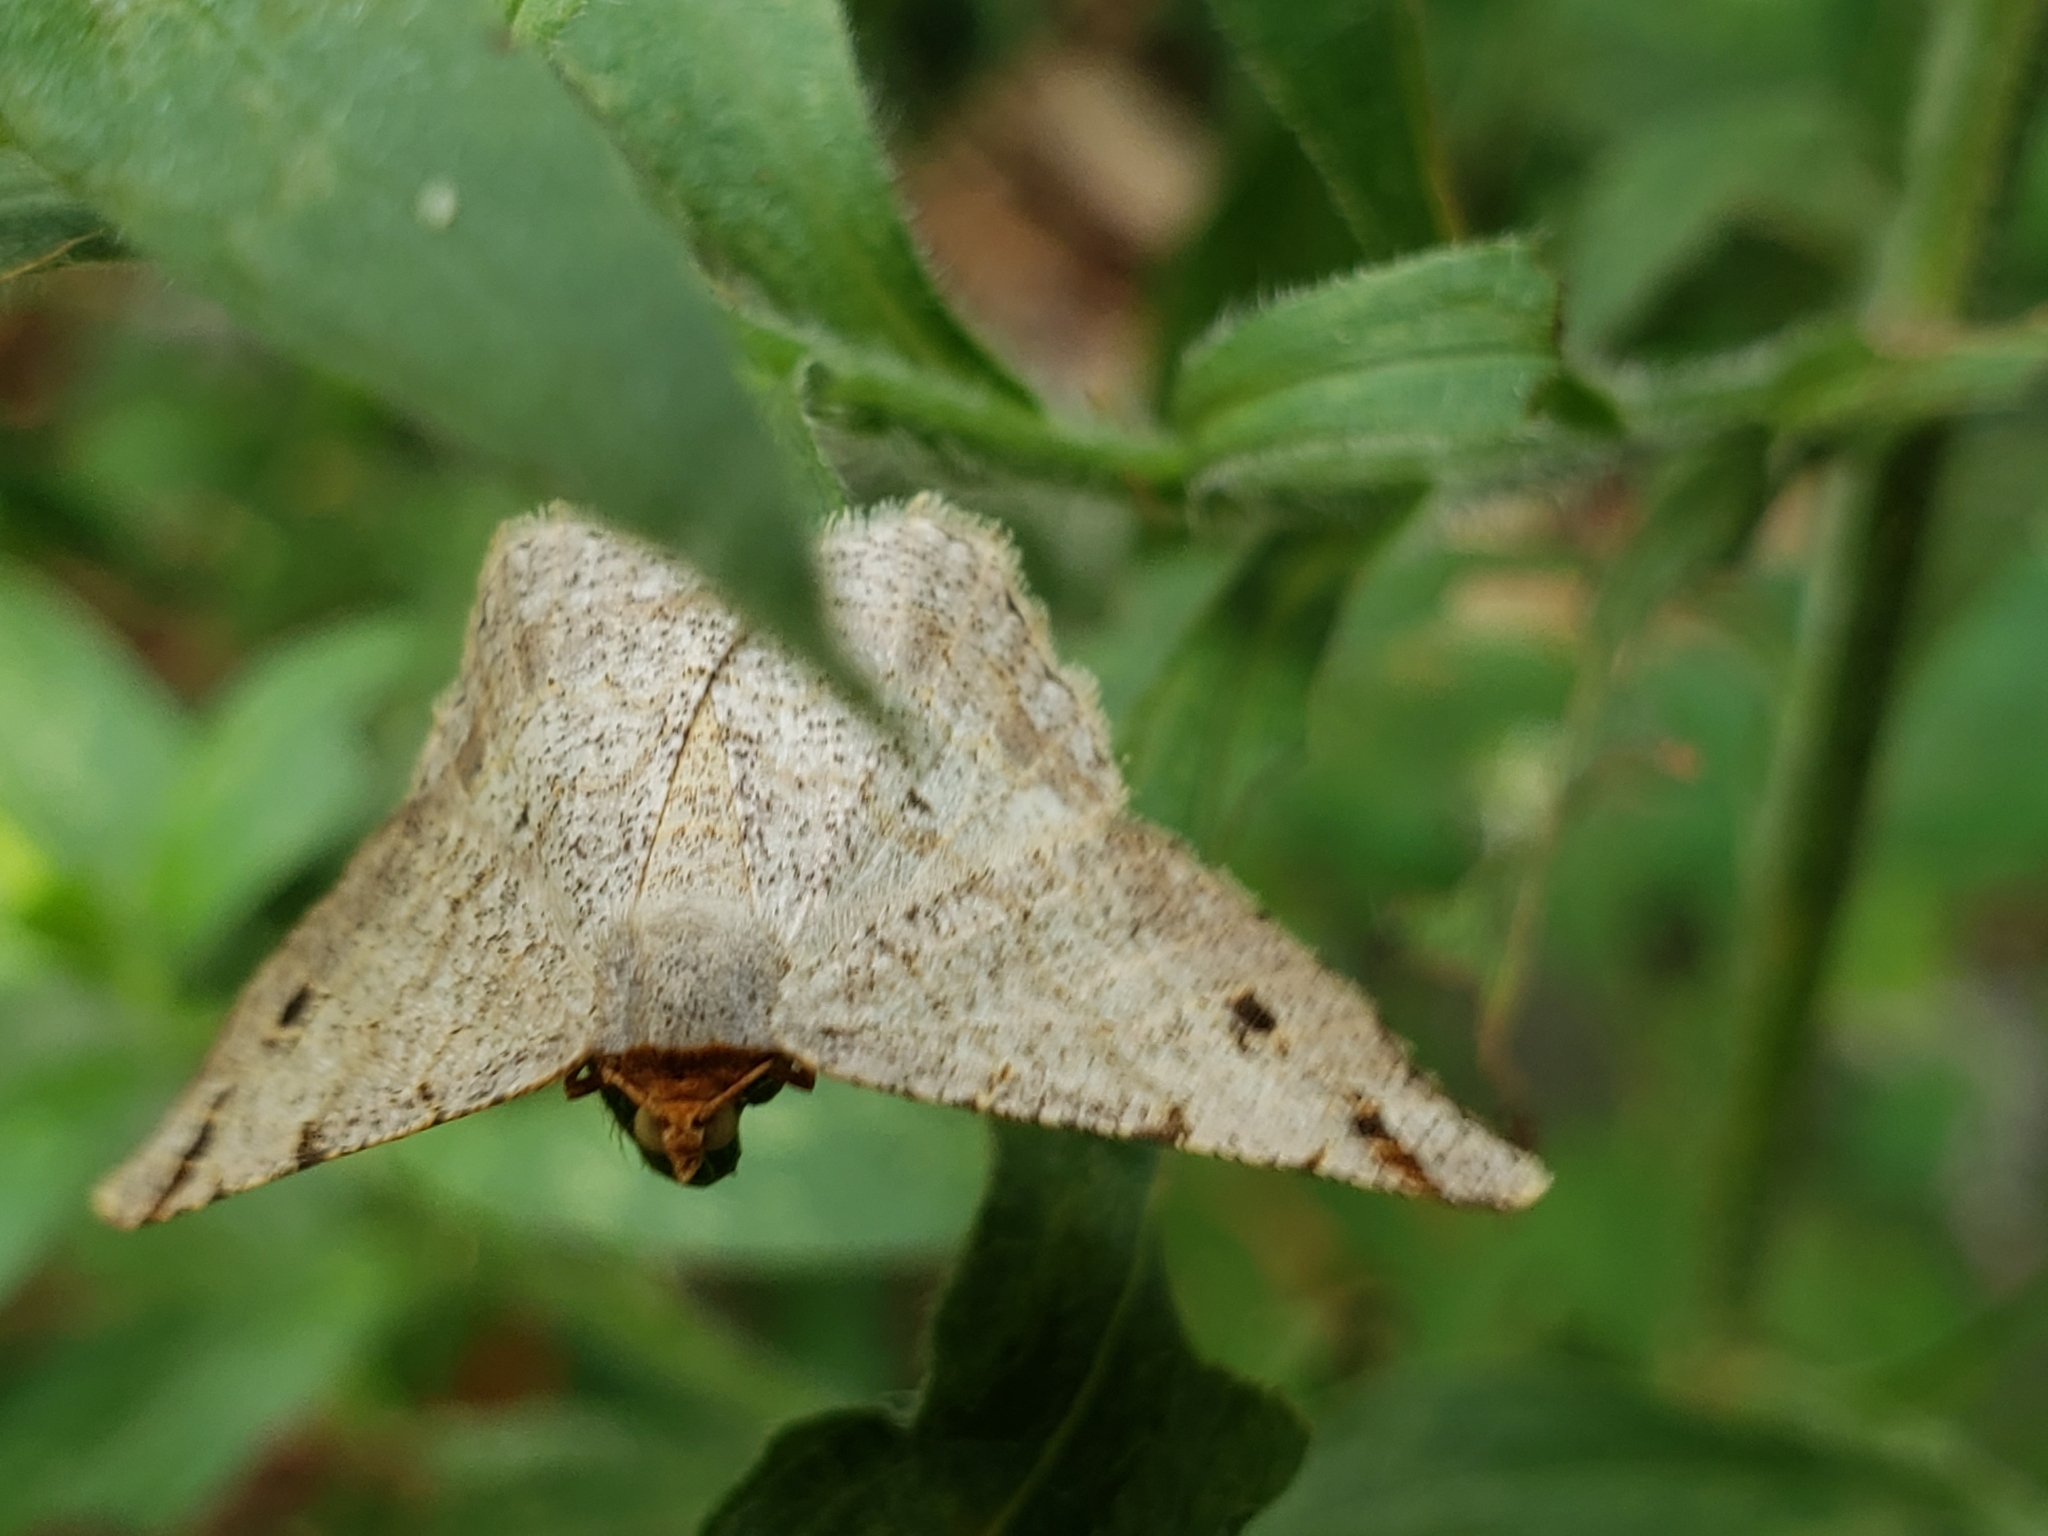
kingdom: Animalia
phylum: Arthropoda
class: Insecta
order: Lepidoptera
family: Geometridae
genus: Macaria
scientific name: Macaria bisignata
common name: Red-headed inchworm
